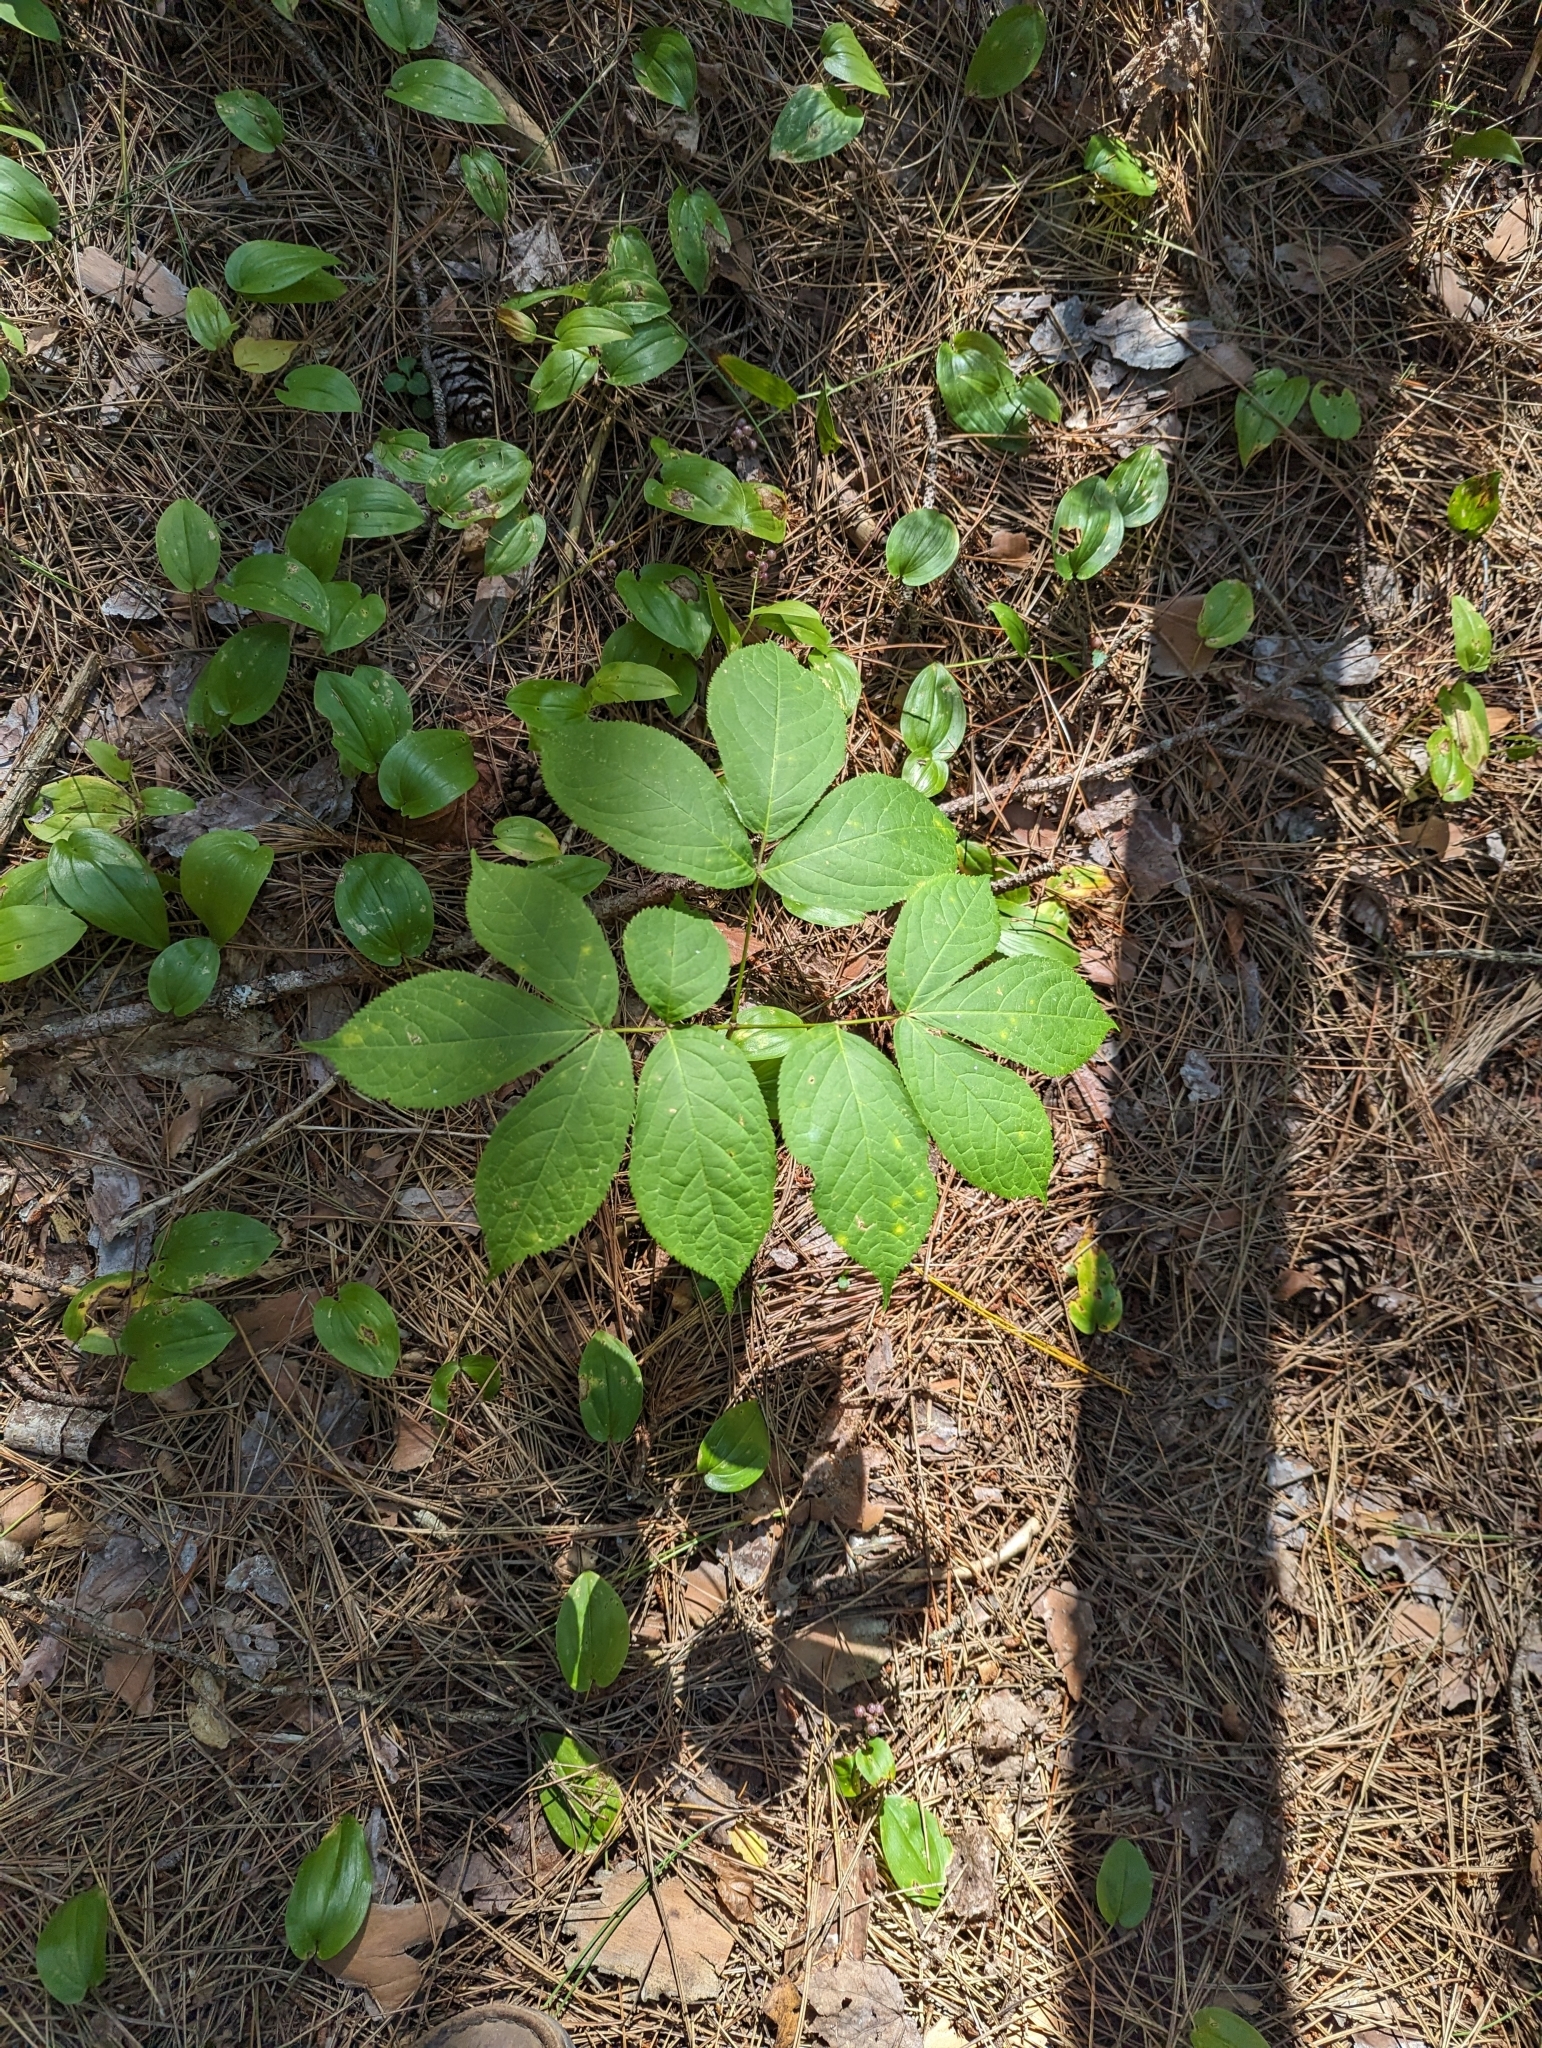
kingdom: Plantae
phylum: Tracheophyta
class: Magnoliopsida
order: Apiales
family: Araliaceae
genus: Aralia
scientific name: Aralia nudicaulis
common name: Wild sarsaparilla
